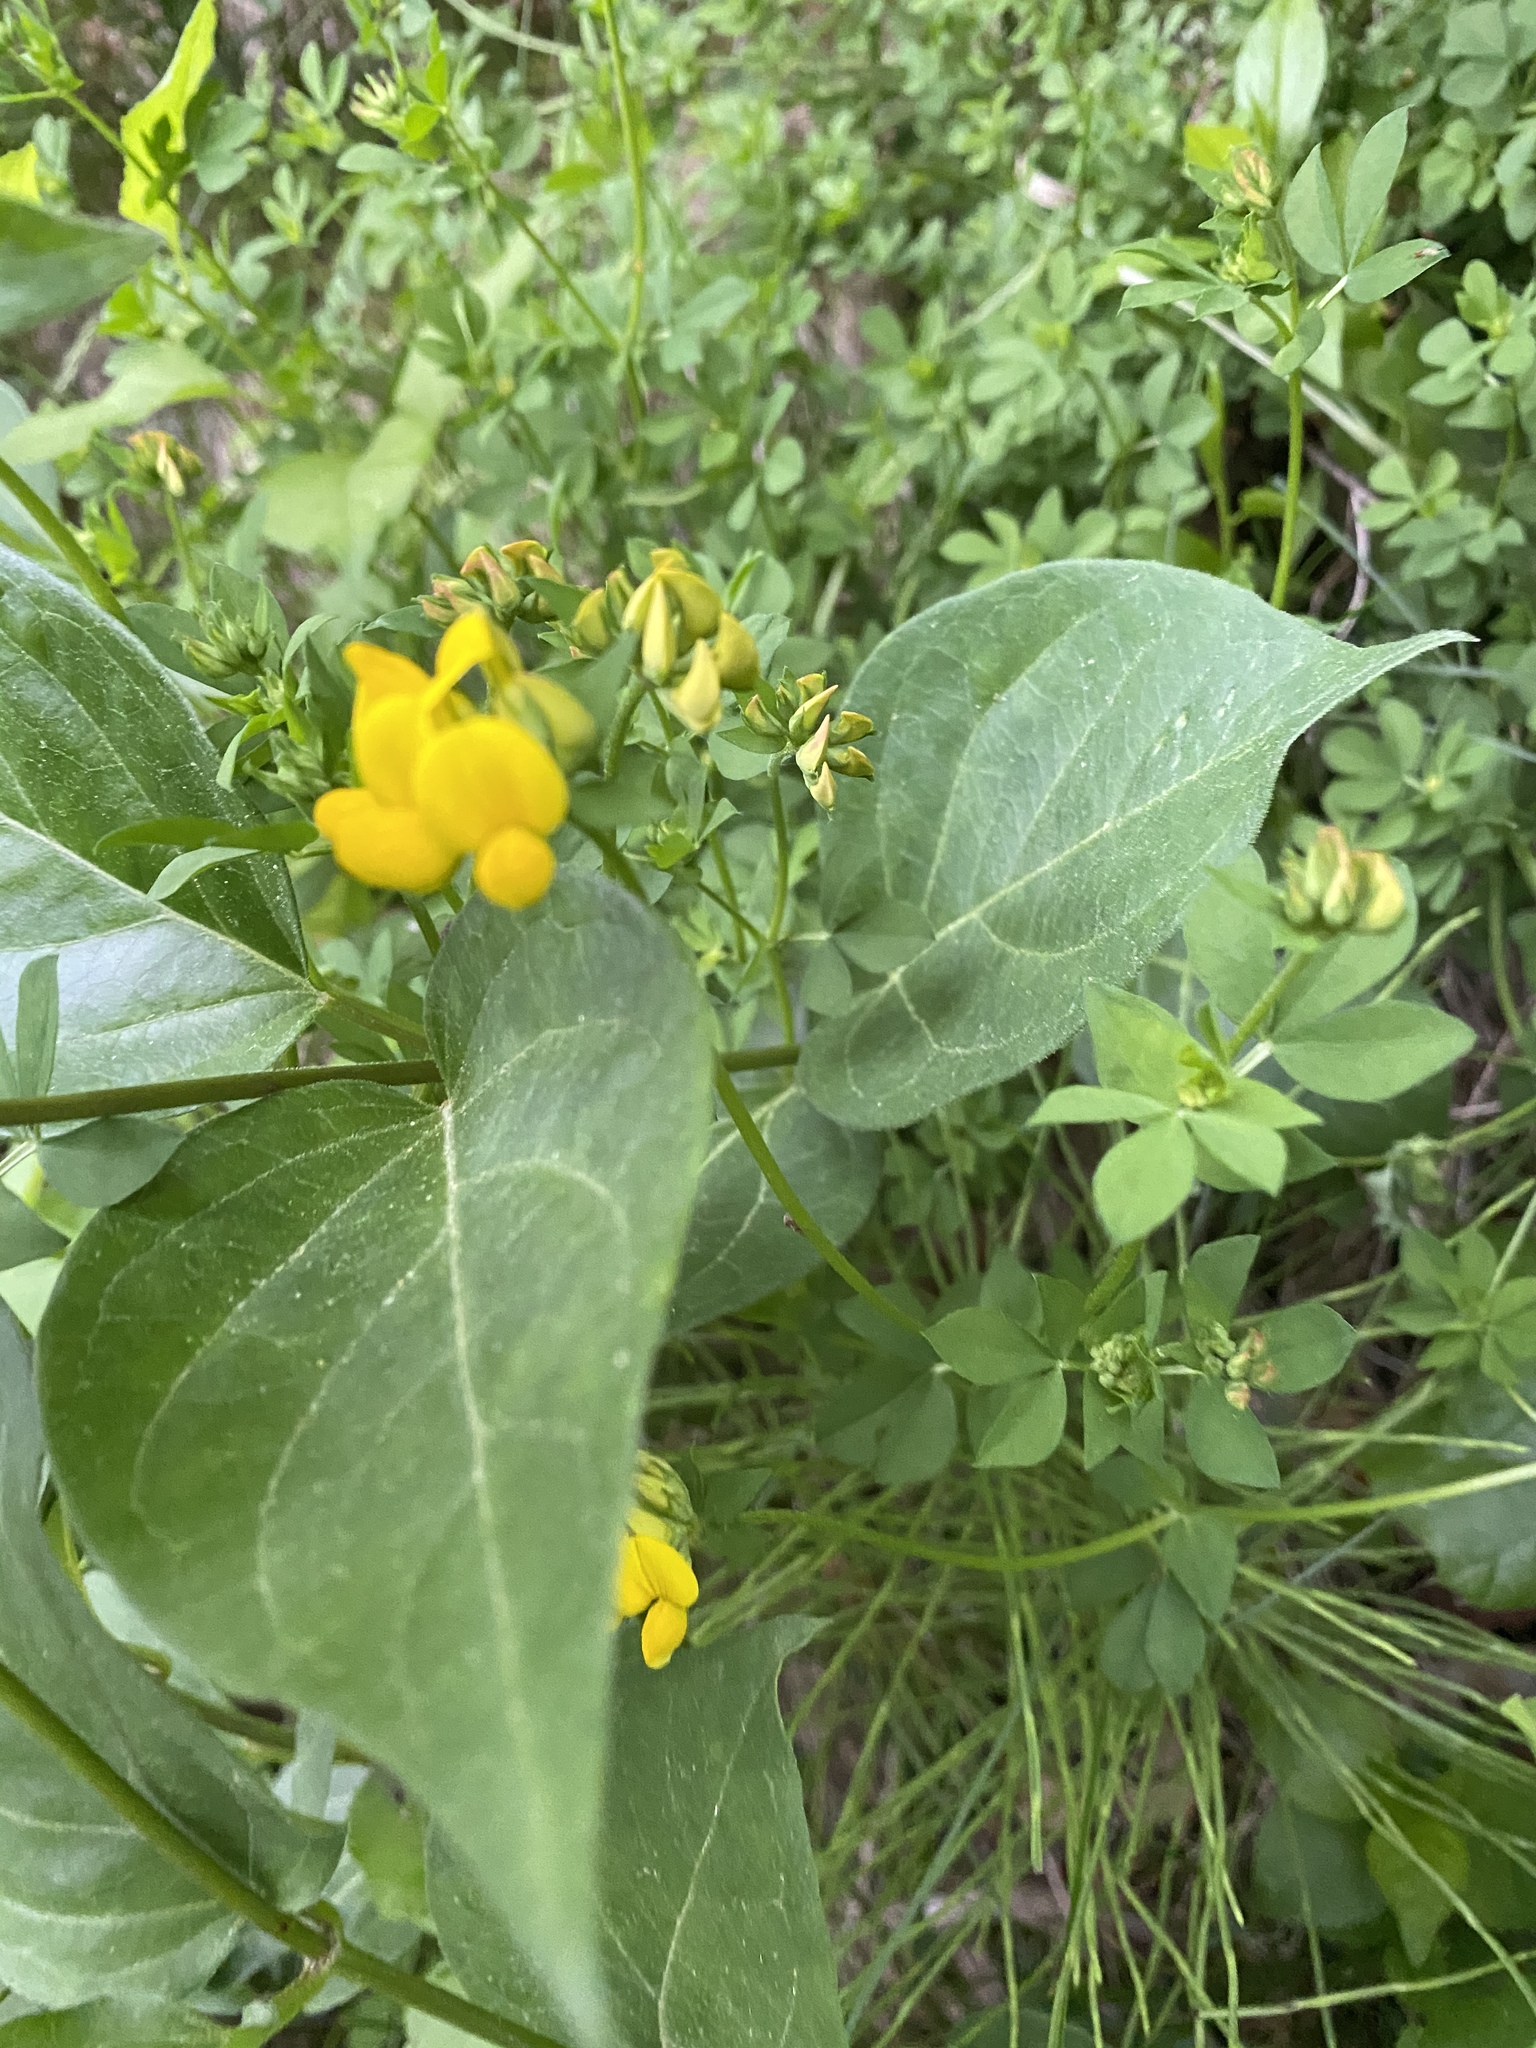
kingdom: Plantae
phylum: Tracheophyta
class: Magnoliopsida
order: Fabales
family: Fabaceae
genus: Lotus
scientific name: Lotus corniculatus
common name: Common bird's-foot-trefoil
